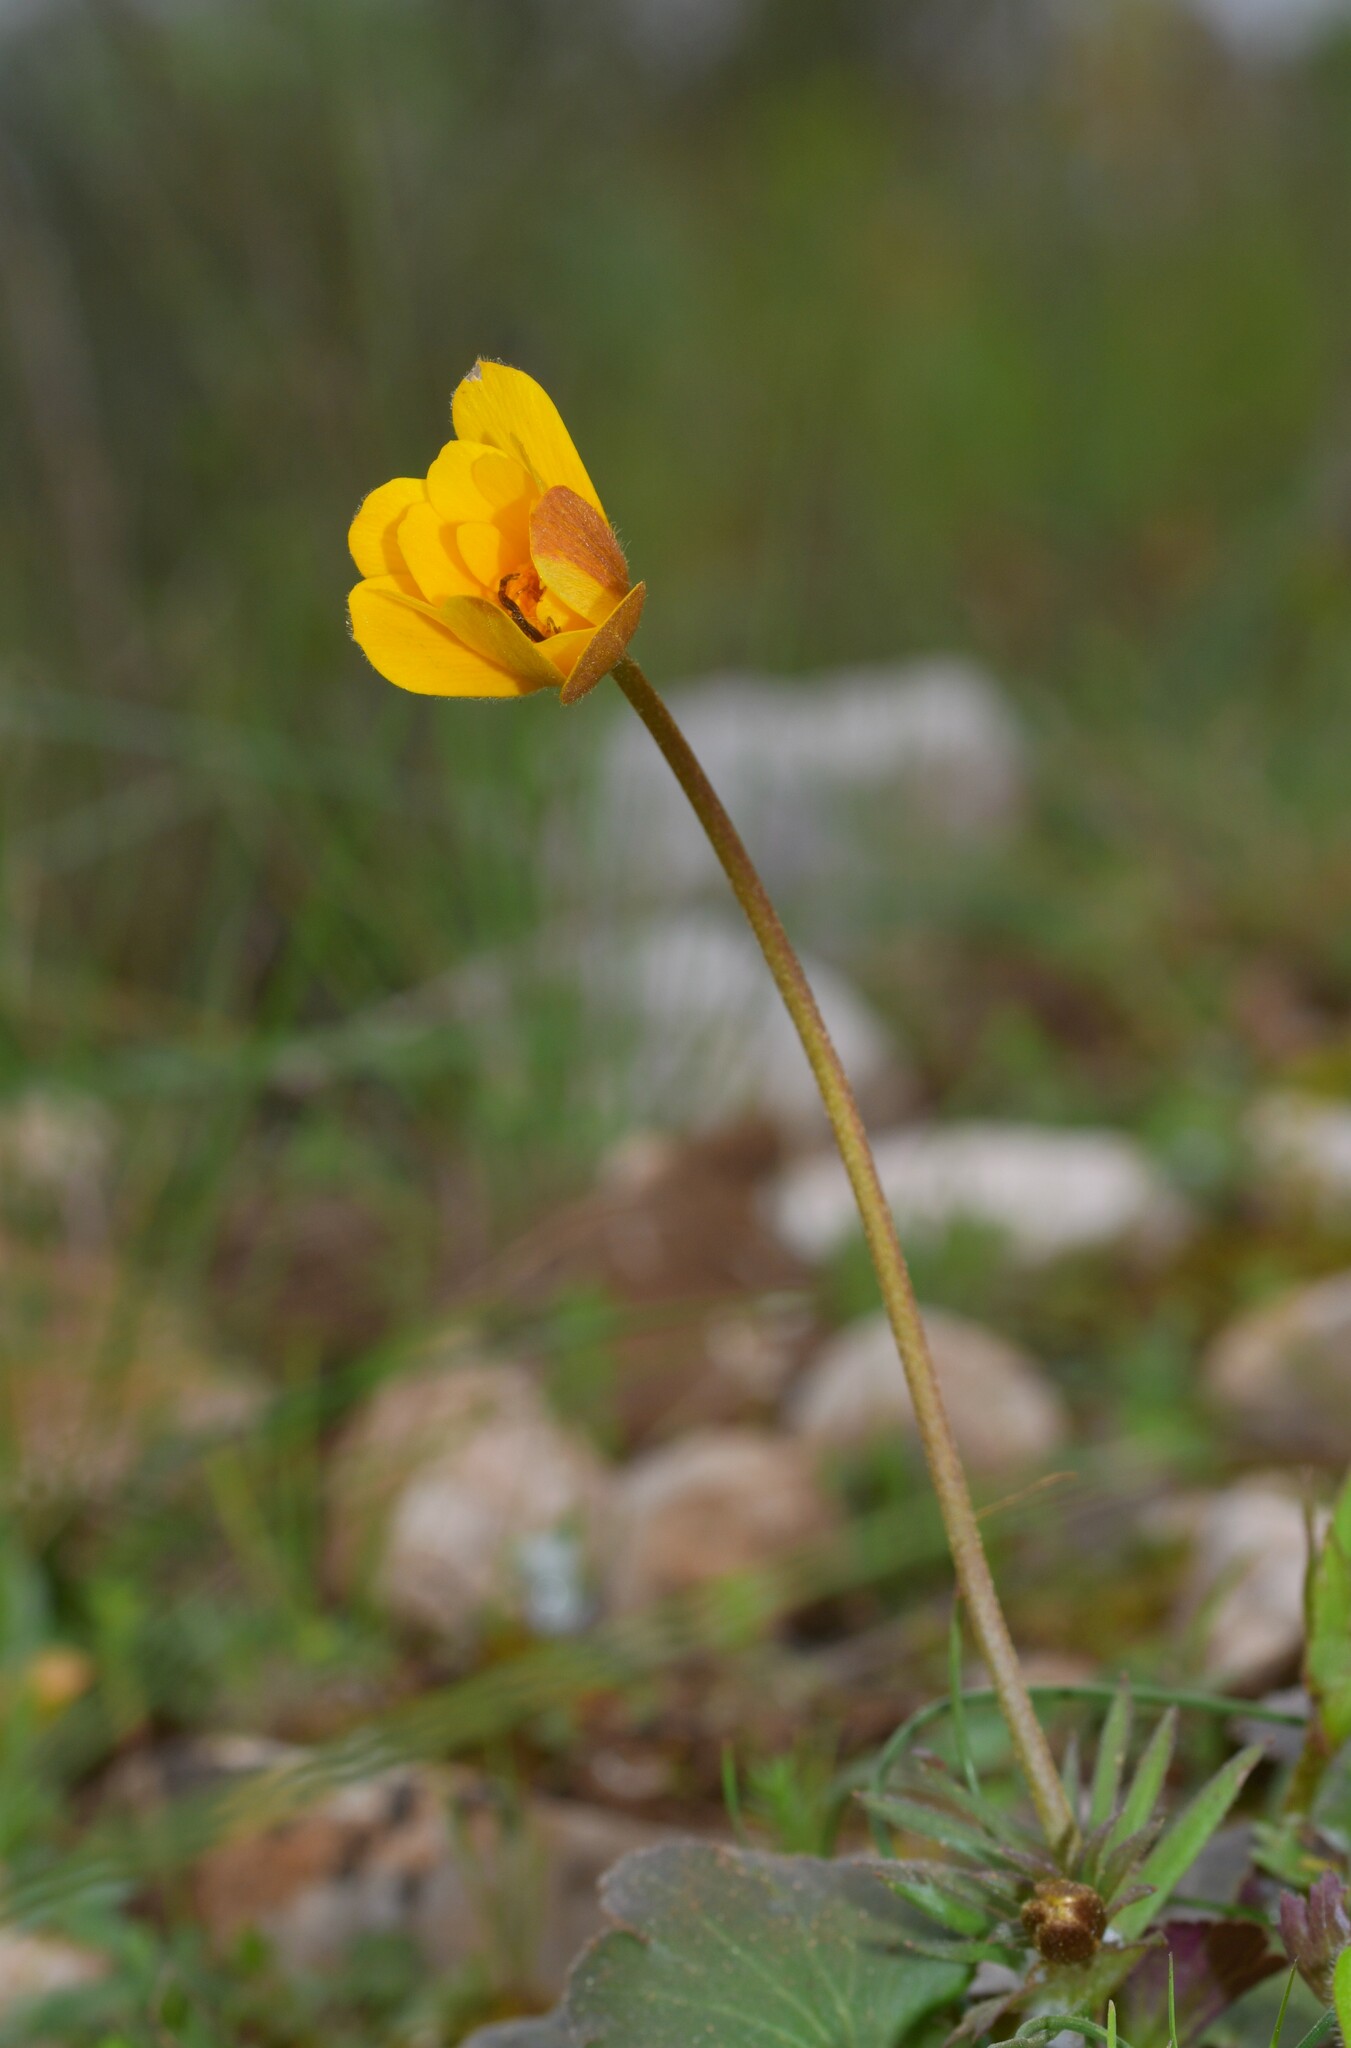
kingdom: Plantae
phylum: Tracheophyta
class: Magnoliopsida
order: Ranunculales
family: Ranunculaceae
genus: Anemone
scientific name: Anemone palmata
